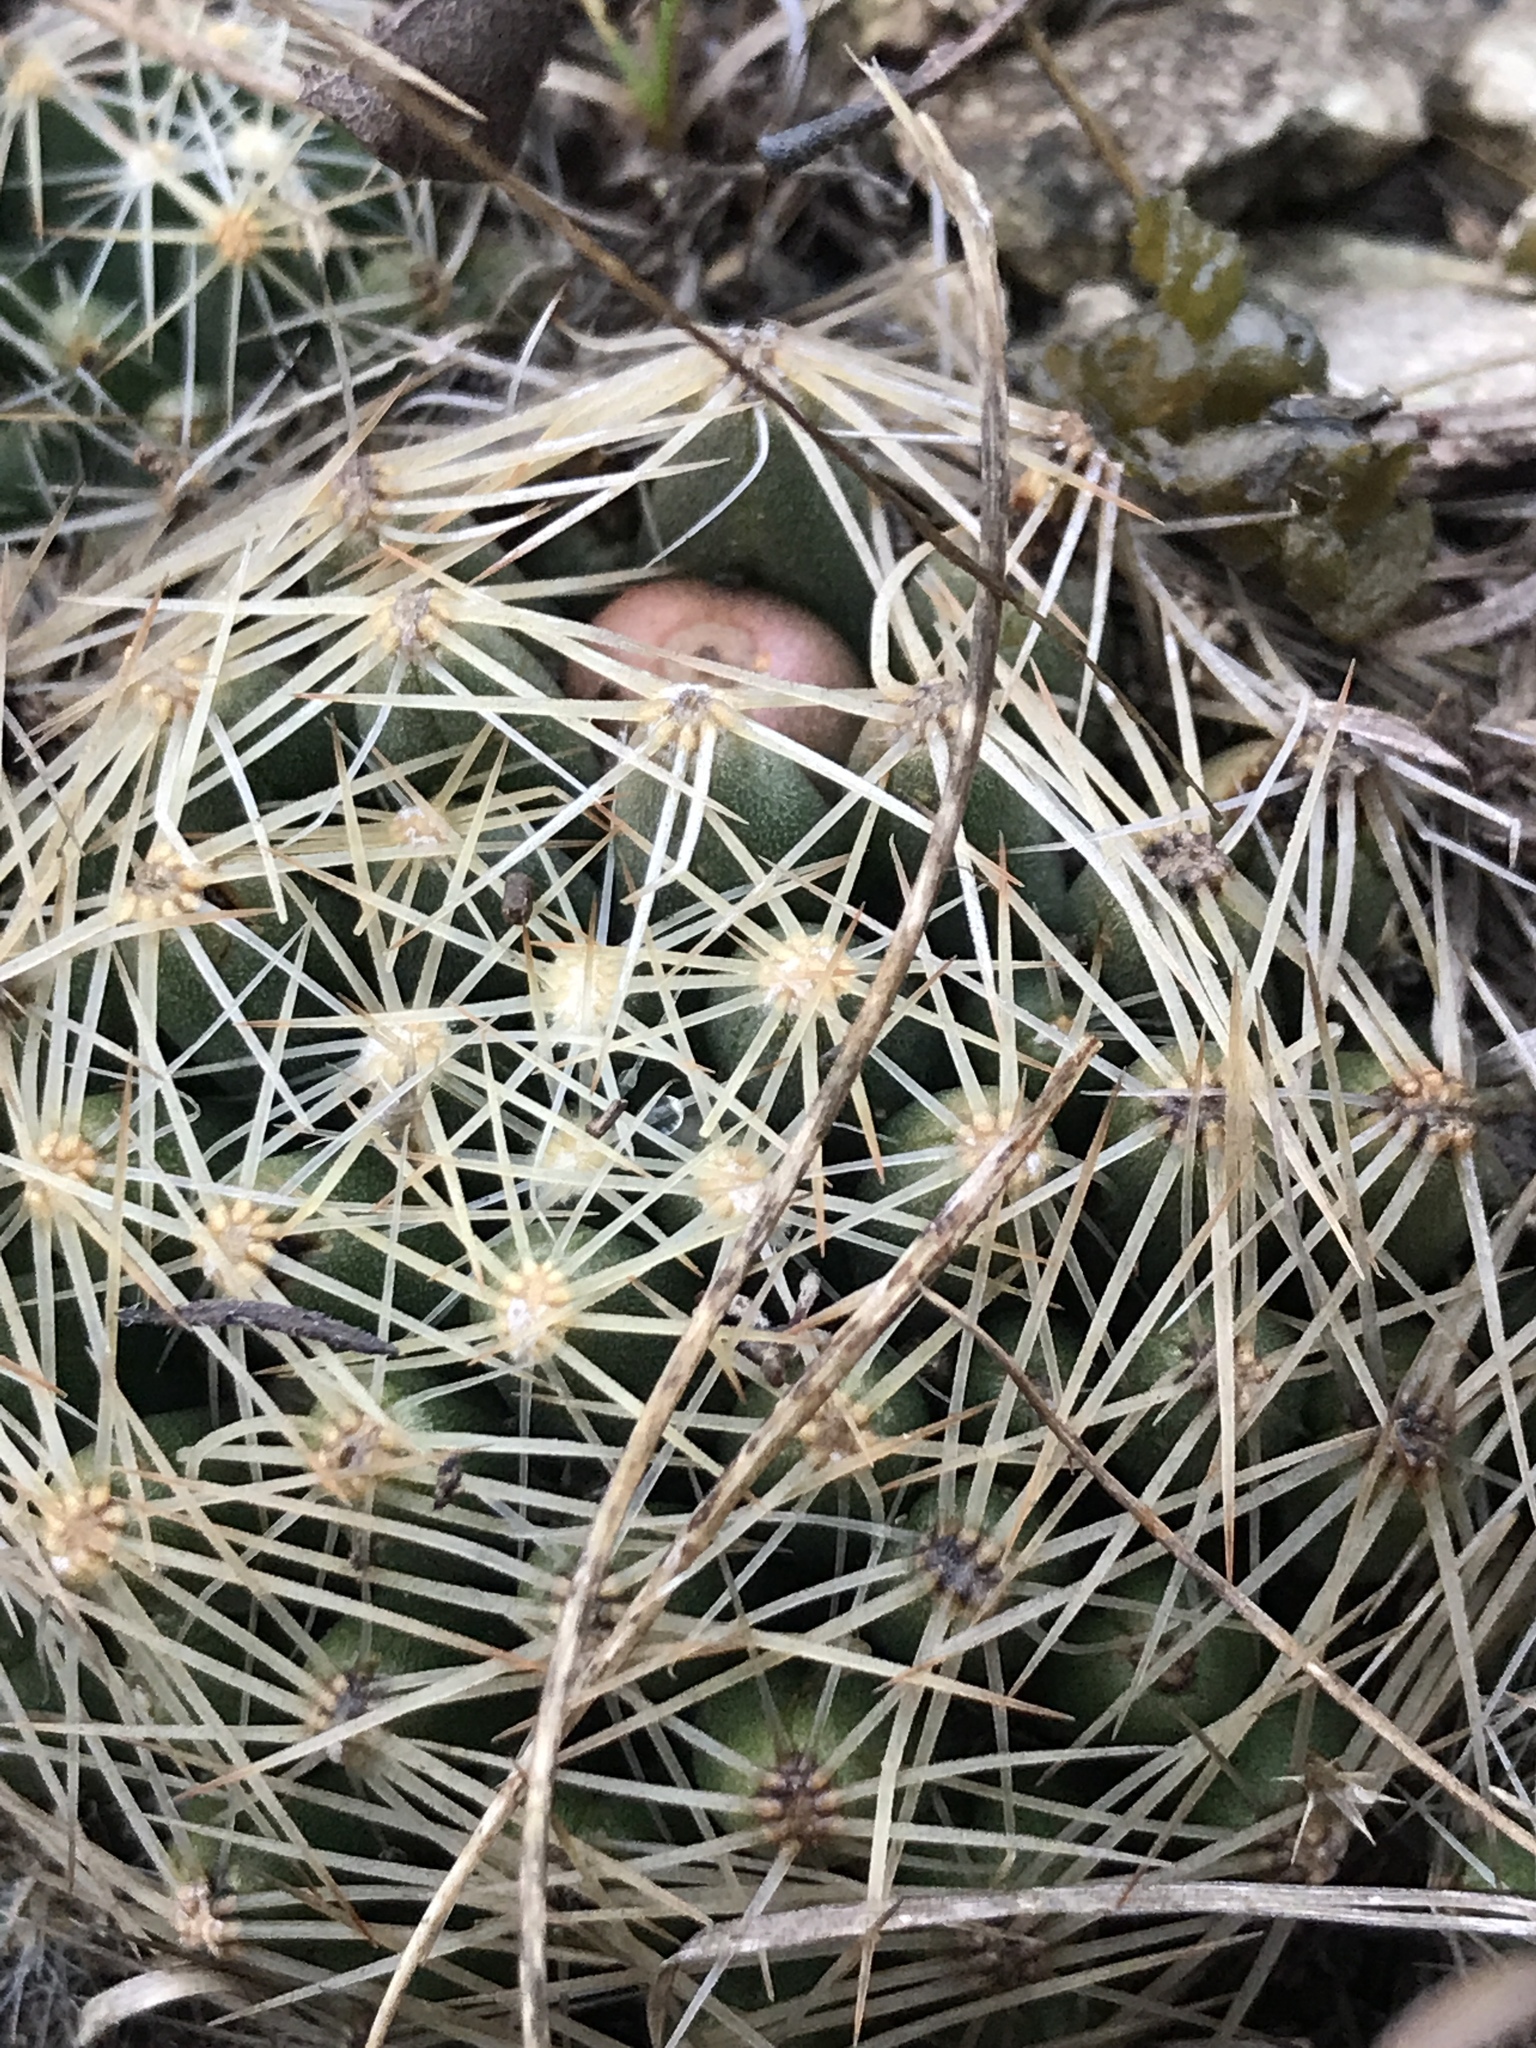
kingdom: Plantae
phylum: Tracheophyta
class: Magnoliopsida
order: Caryophyllales
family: Cactaceae
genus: Pelecyphora
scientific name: Pelecyphora missouriensis
